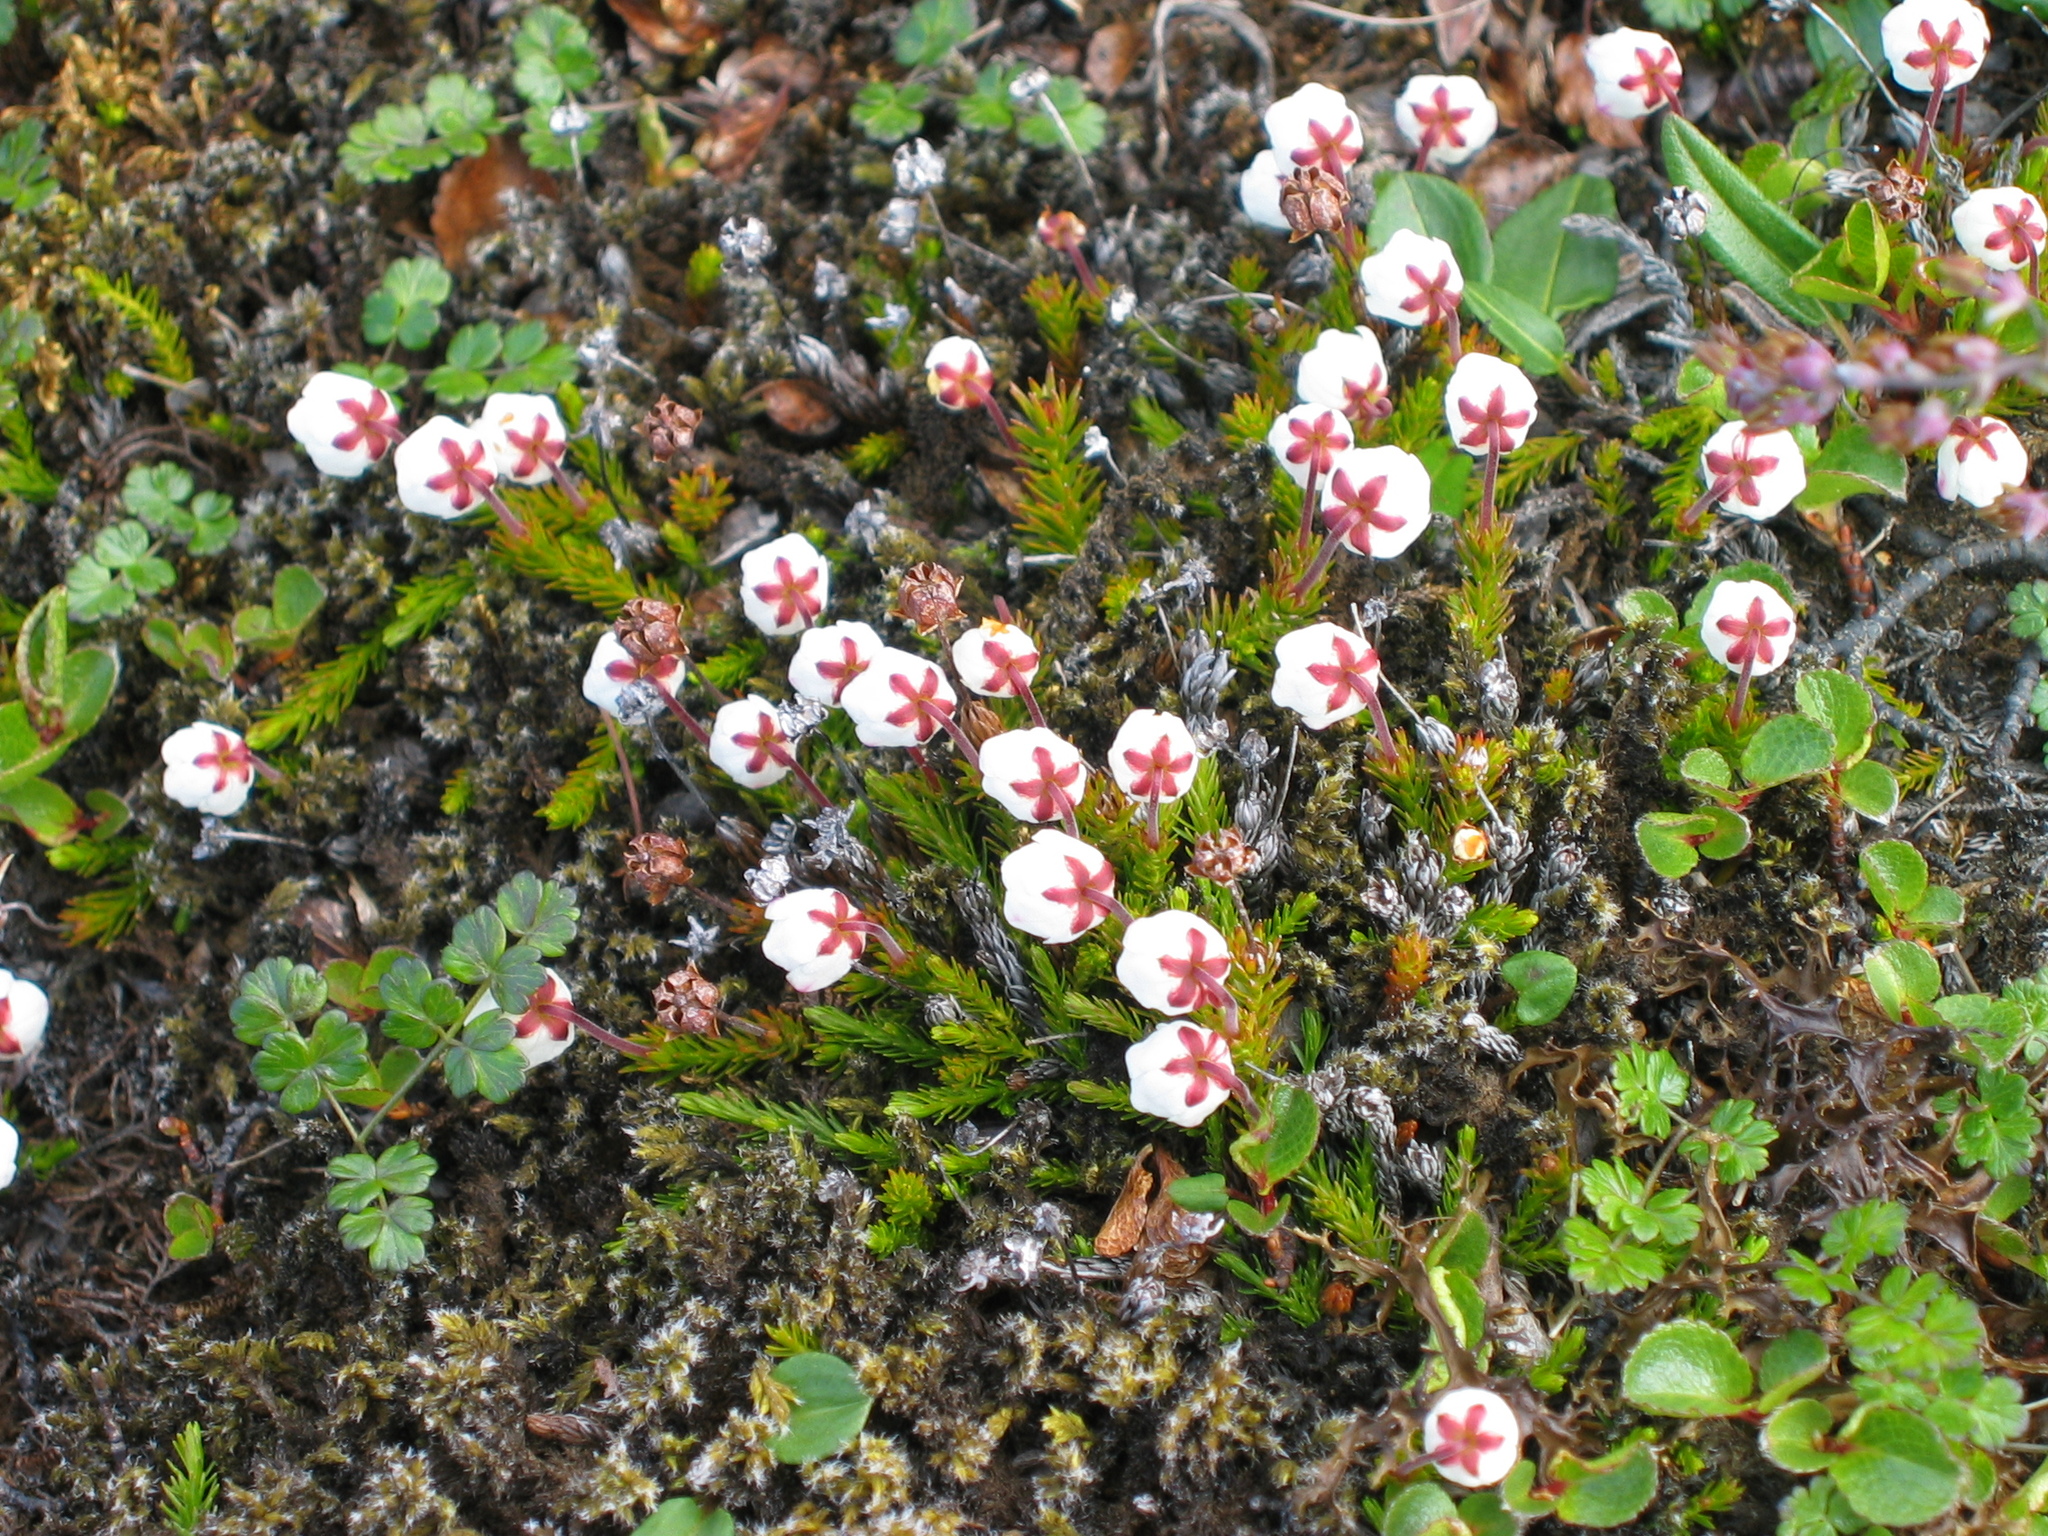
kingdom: Plantae
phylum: Tracheophyta
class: Magnoliopsida
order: Ericales
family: Ericaceae
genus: Harrimanella
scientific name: Harrimanella hypnoides
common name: Moss bell heather
